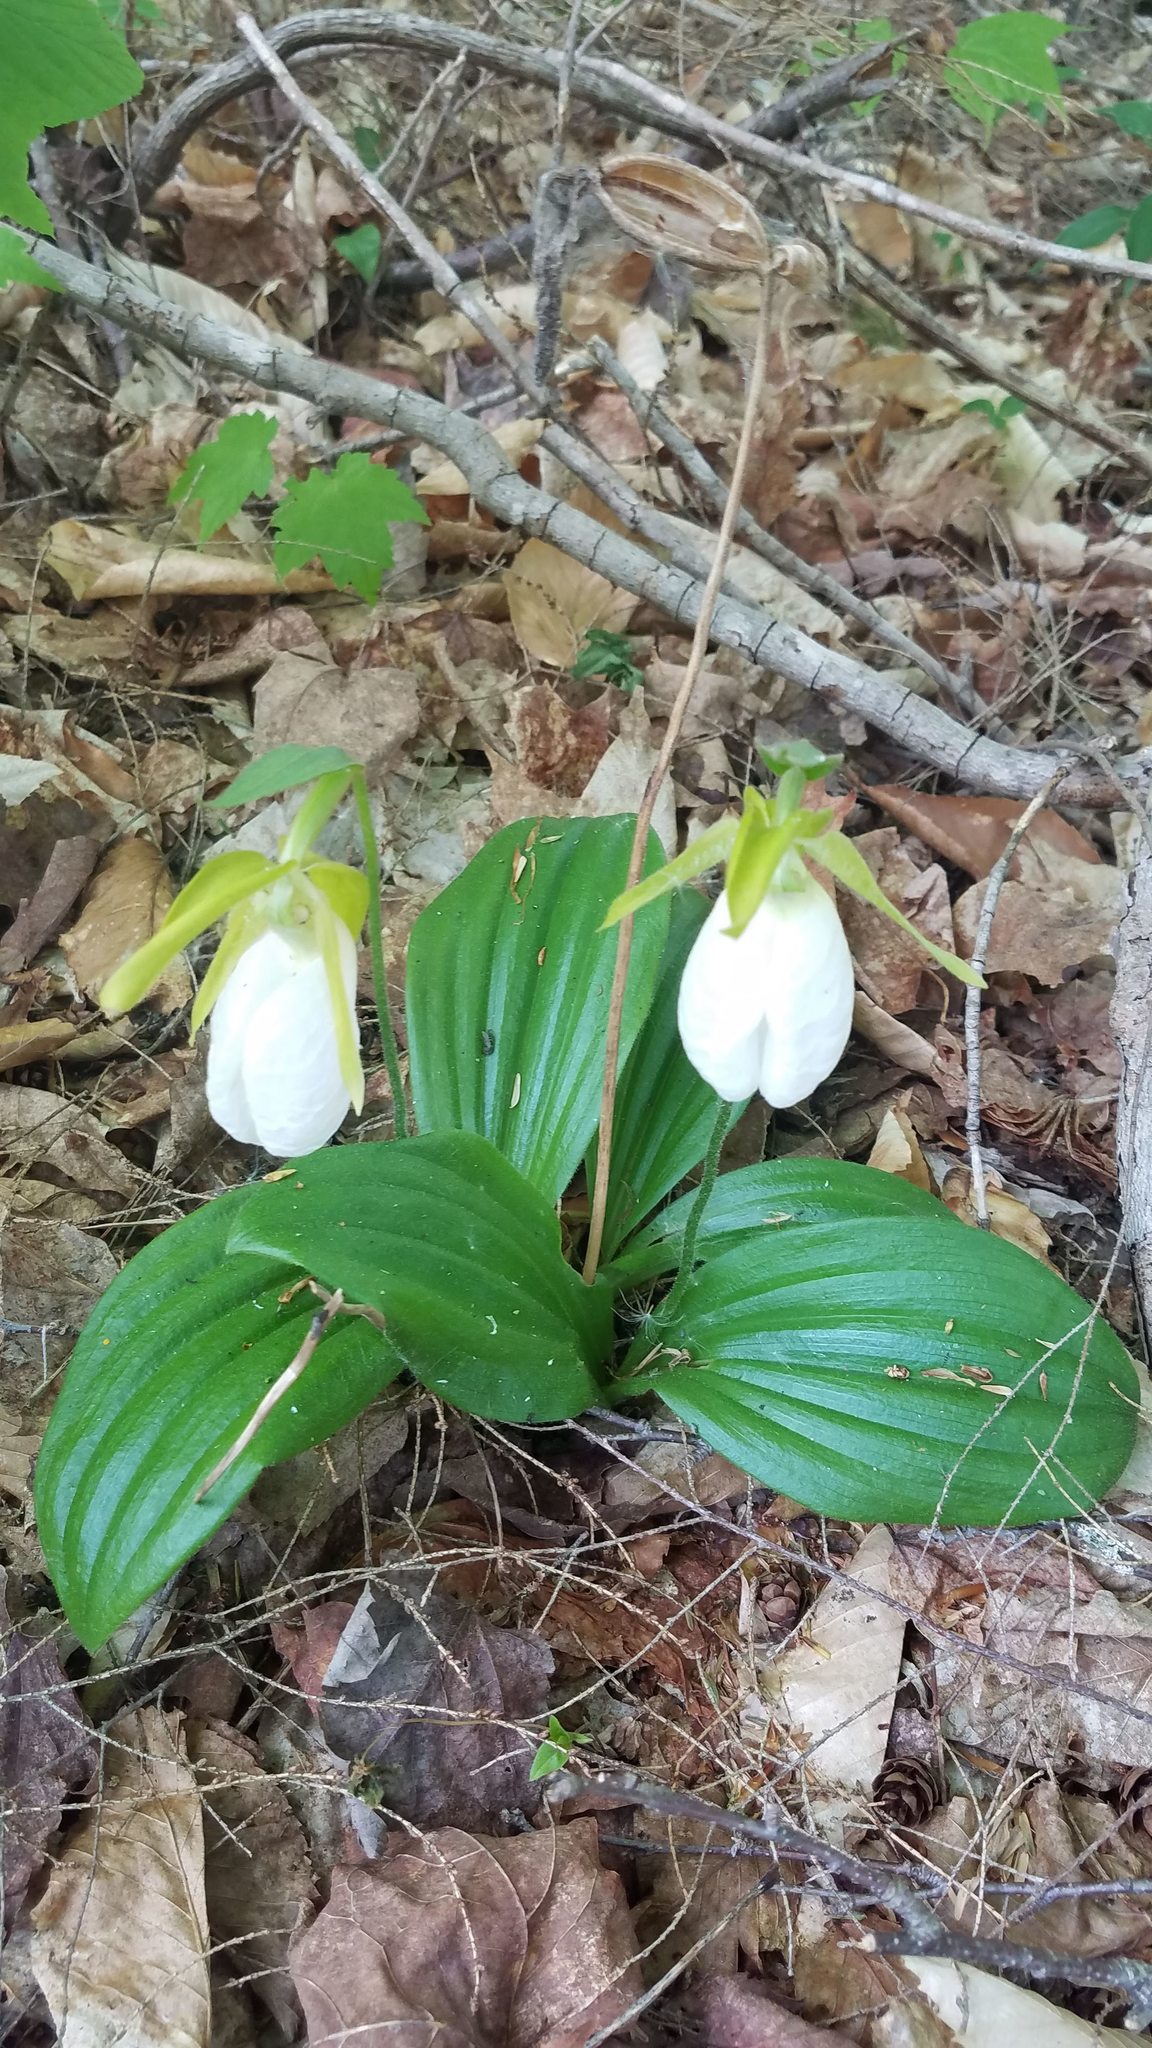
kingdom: Plantae
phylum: Tracheophyta
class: Liliopsida
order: Asparagales
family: Orchidaceae
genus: Cypripedium
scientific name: Cypripedium acaule
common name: Pink lady's-slipper
